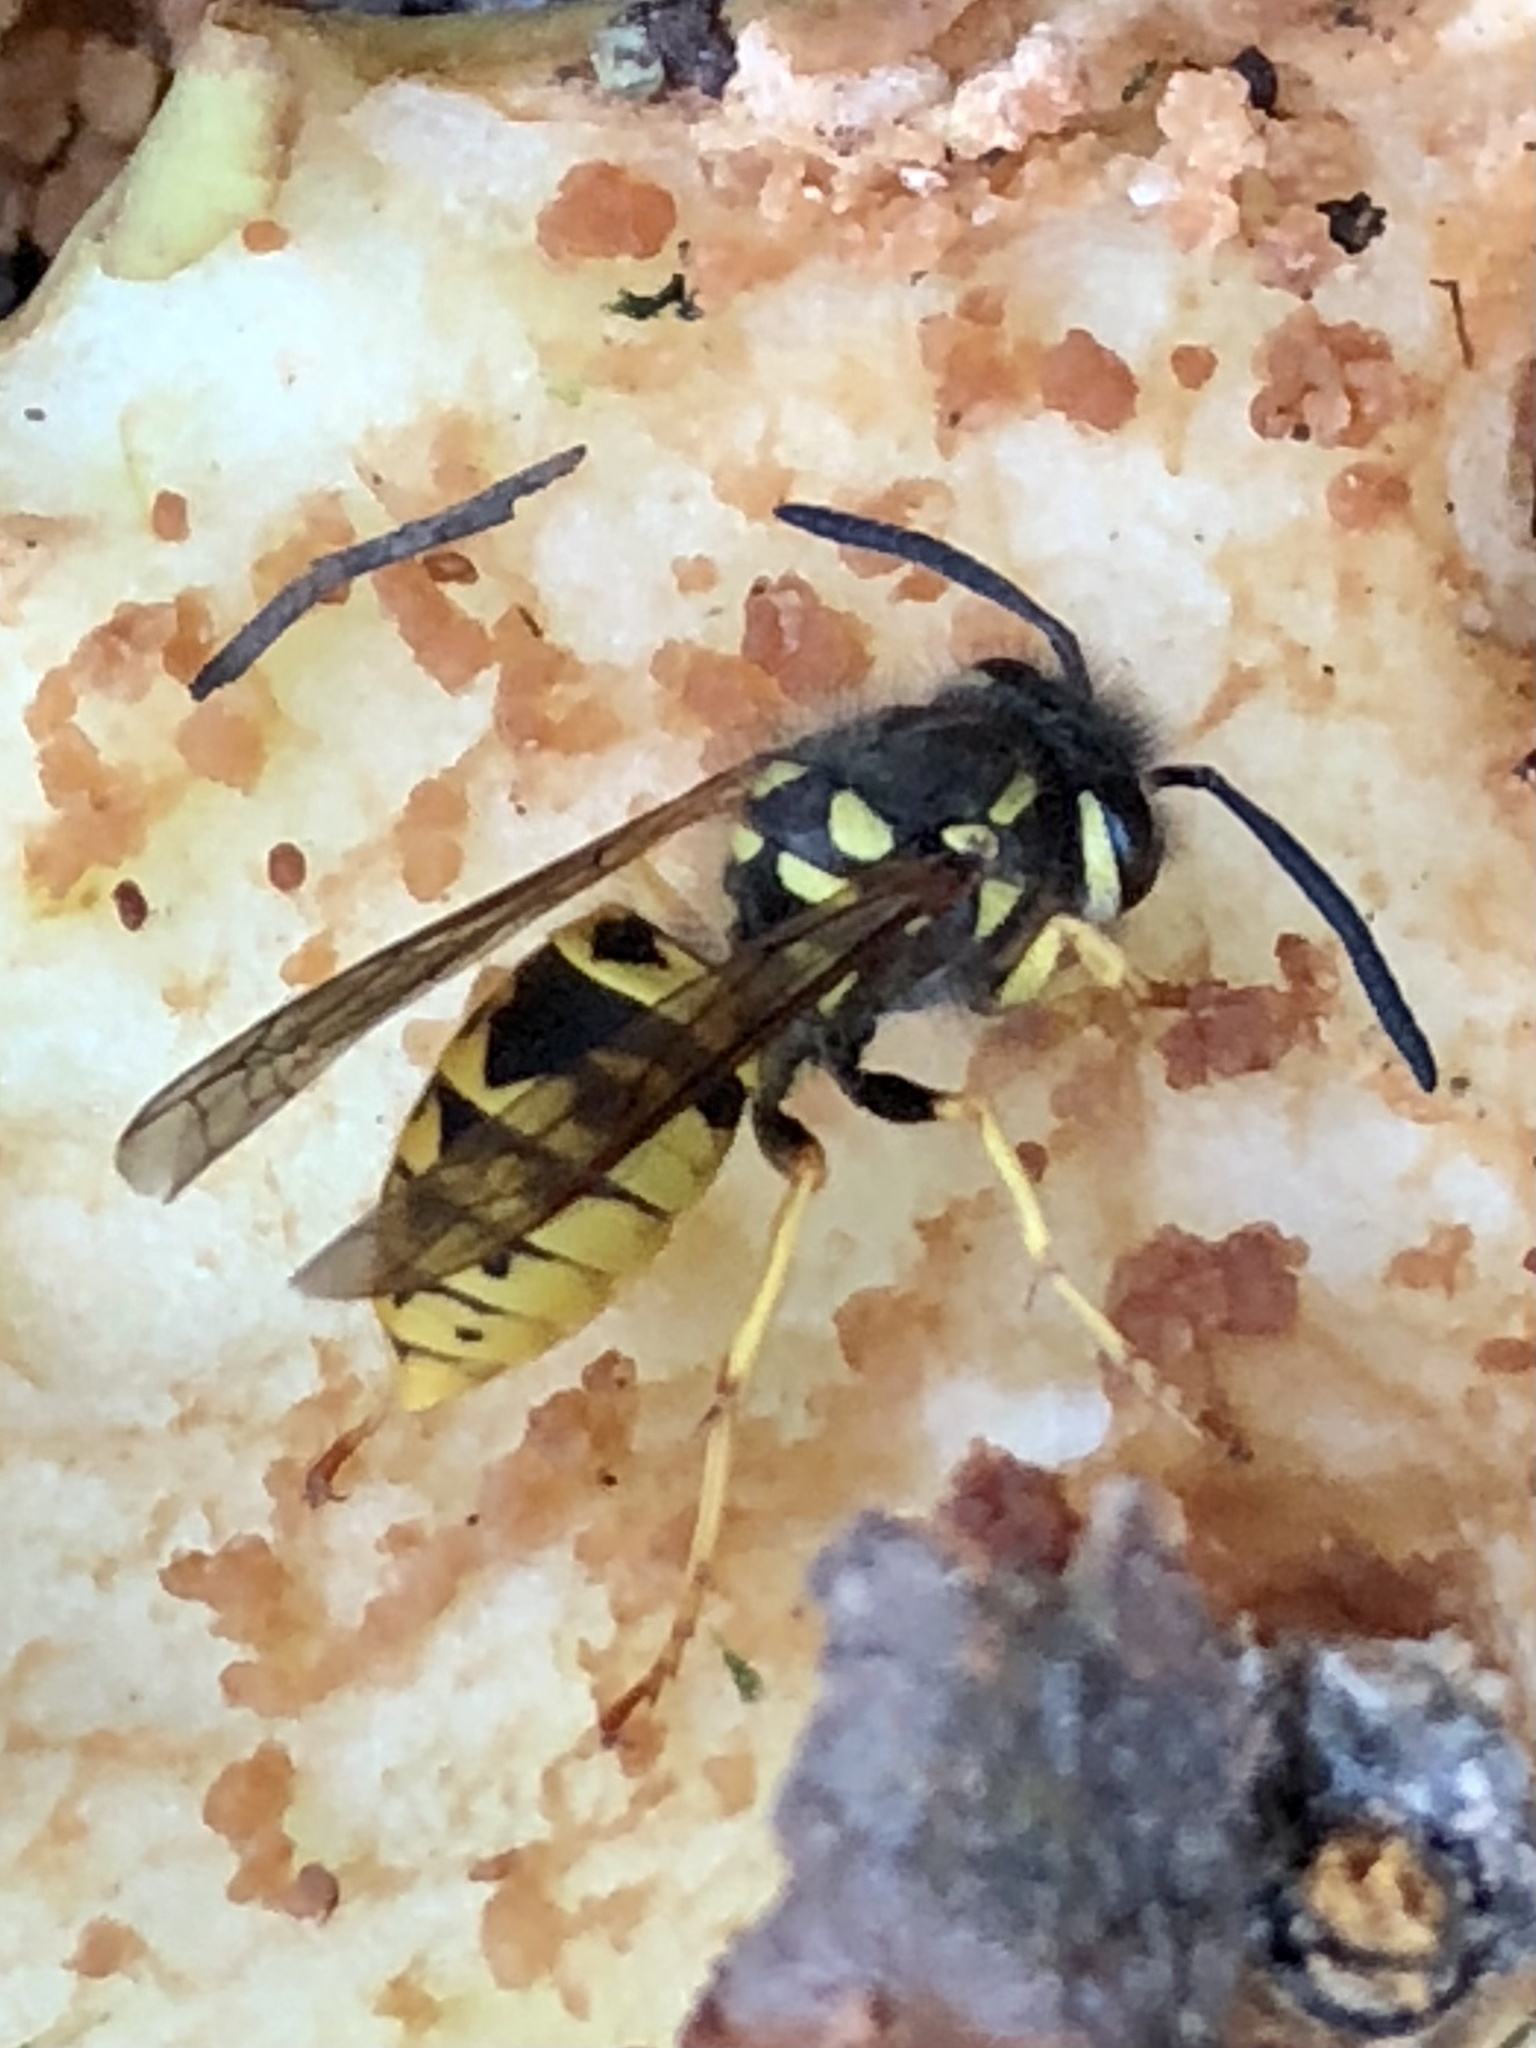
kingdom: Animalia
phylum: Arthropoda
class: Insecta
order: Hymenoptera
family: Vespidae
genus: Vespula
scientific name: Vespula germanica
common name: German wasp
